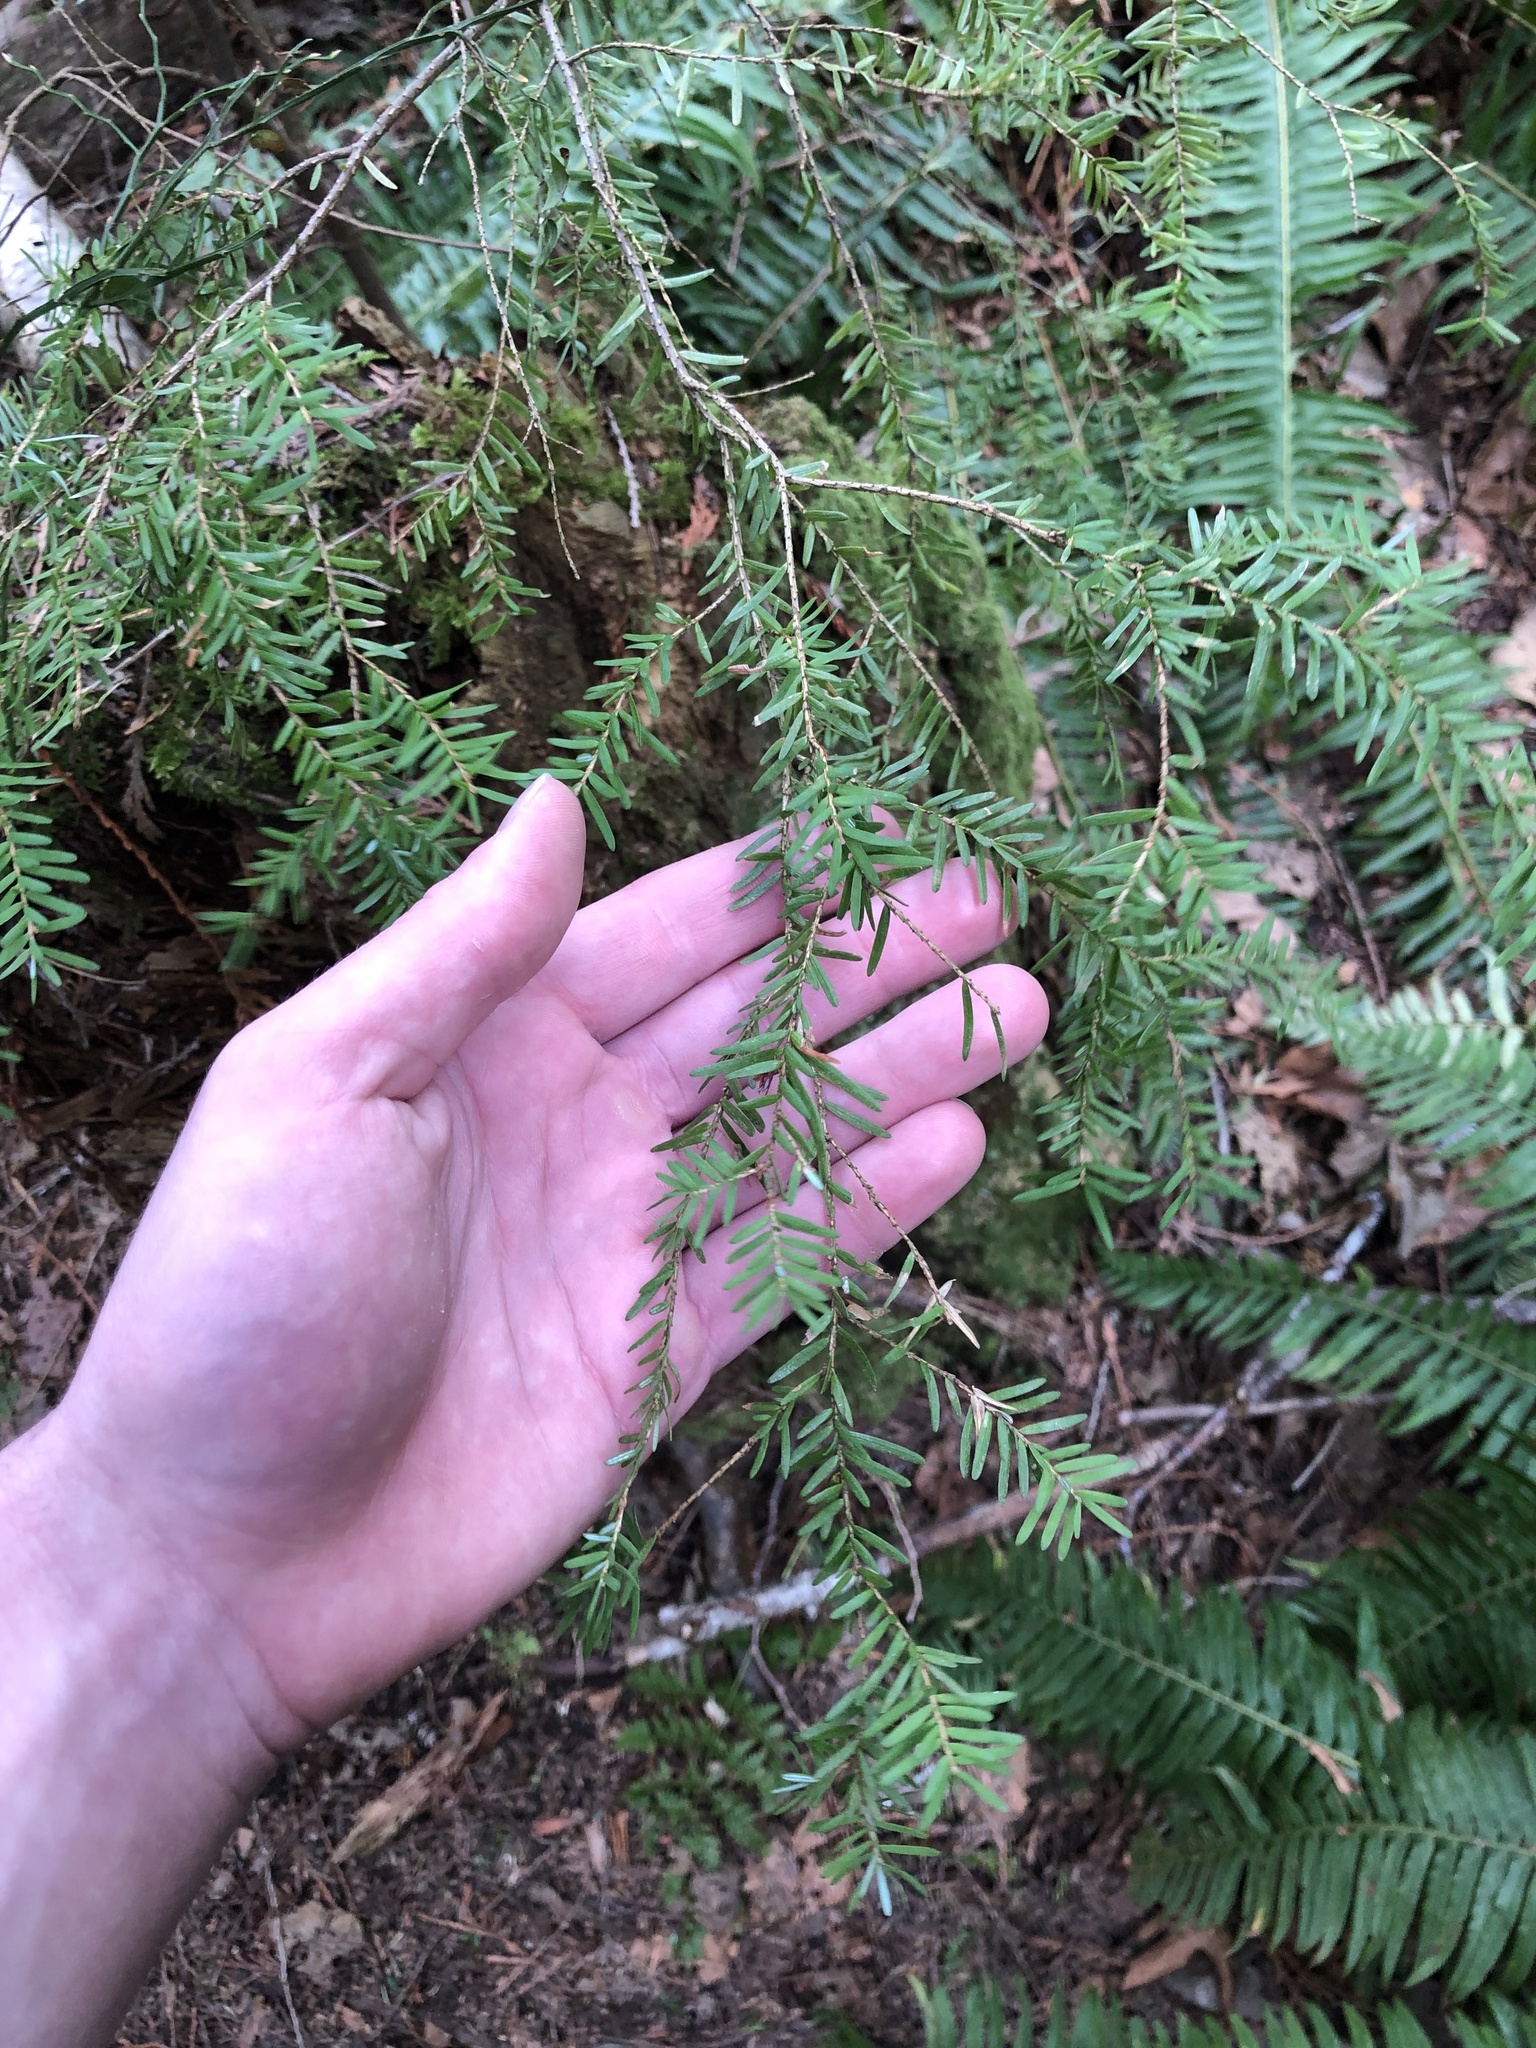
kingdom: Plantae
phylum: Tracheophyta
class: Pinopsida
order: Pinales
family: Pinaceae
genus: Tsuga
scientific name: Tsuga heterophylla
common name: Western hemlock
